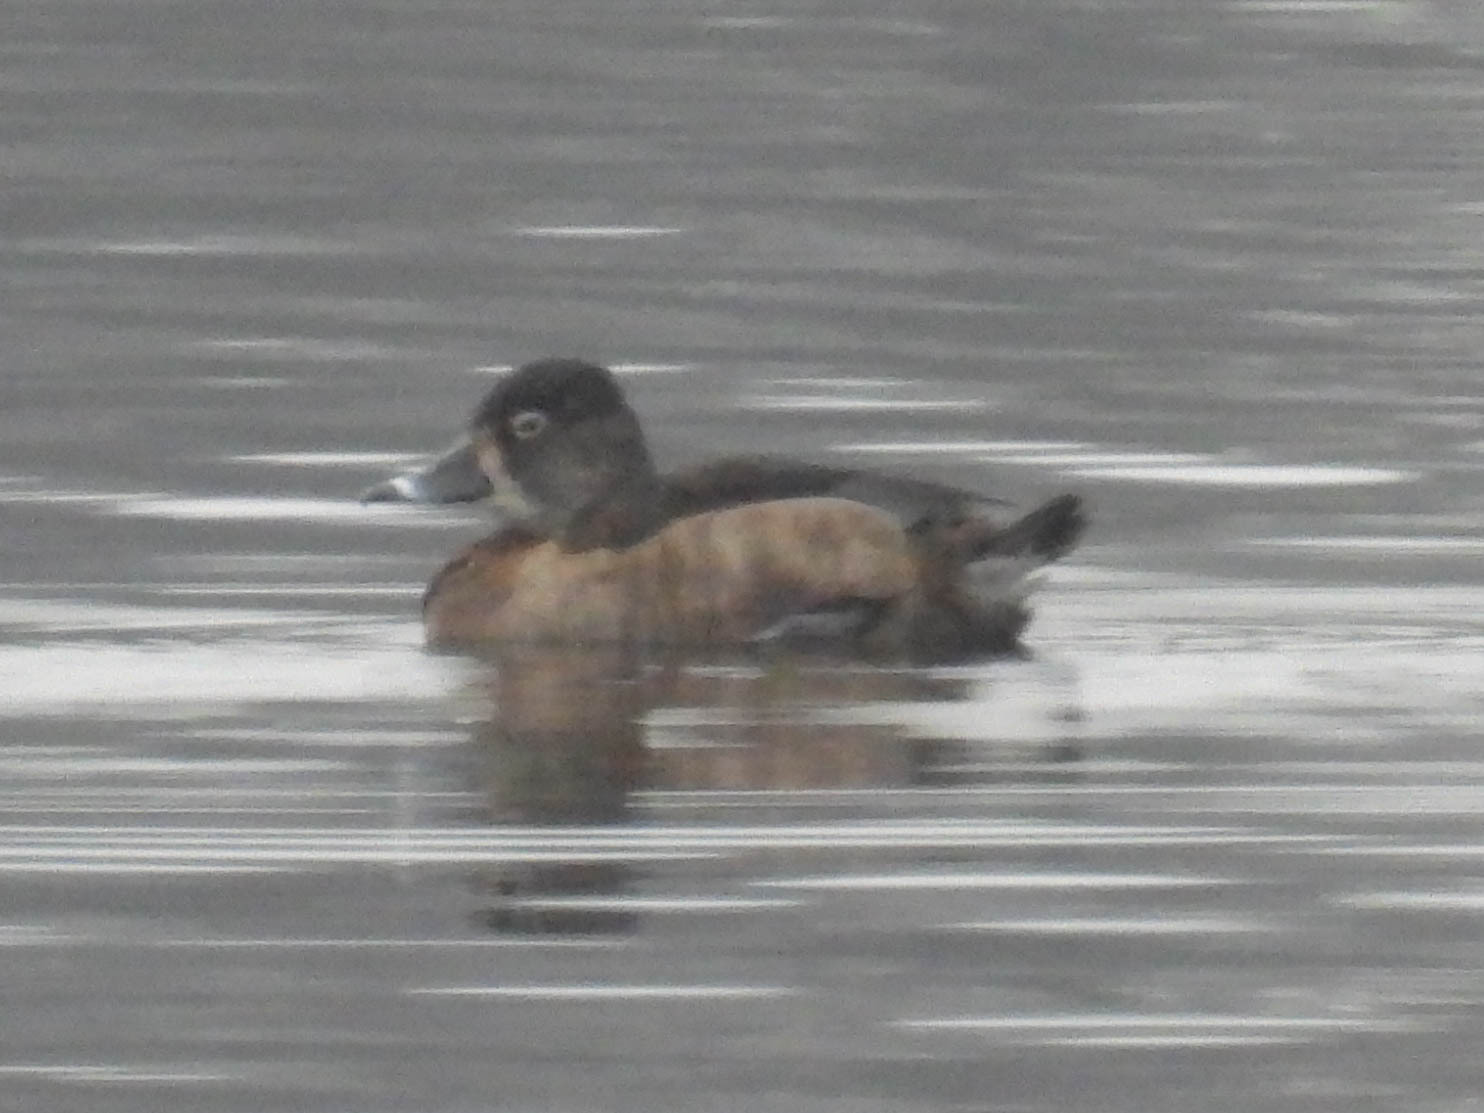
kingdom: Animalia
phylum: Chordata
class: Aves
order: Anseriformes
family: Anatidae
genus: Aythya
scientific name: Aythya collaris
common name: Ring-necked duck
